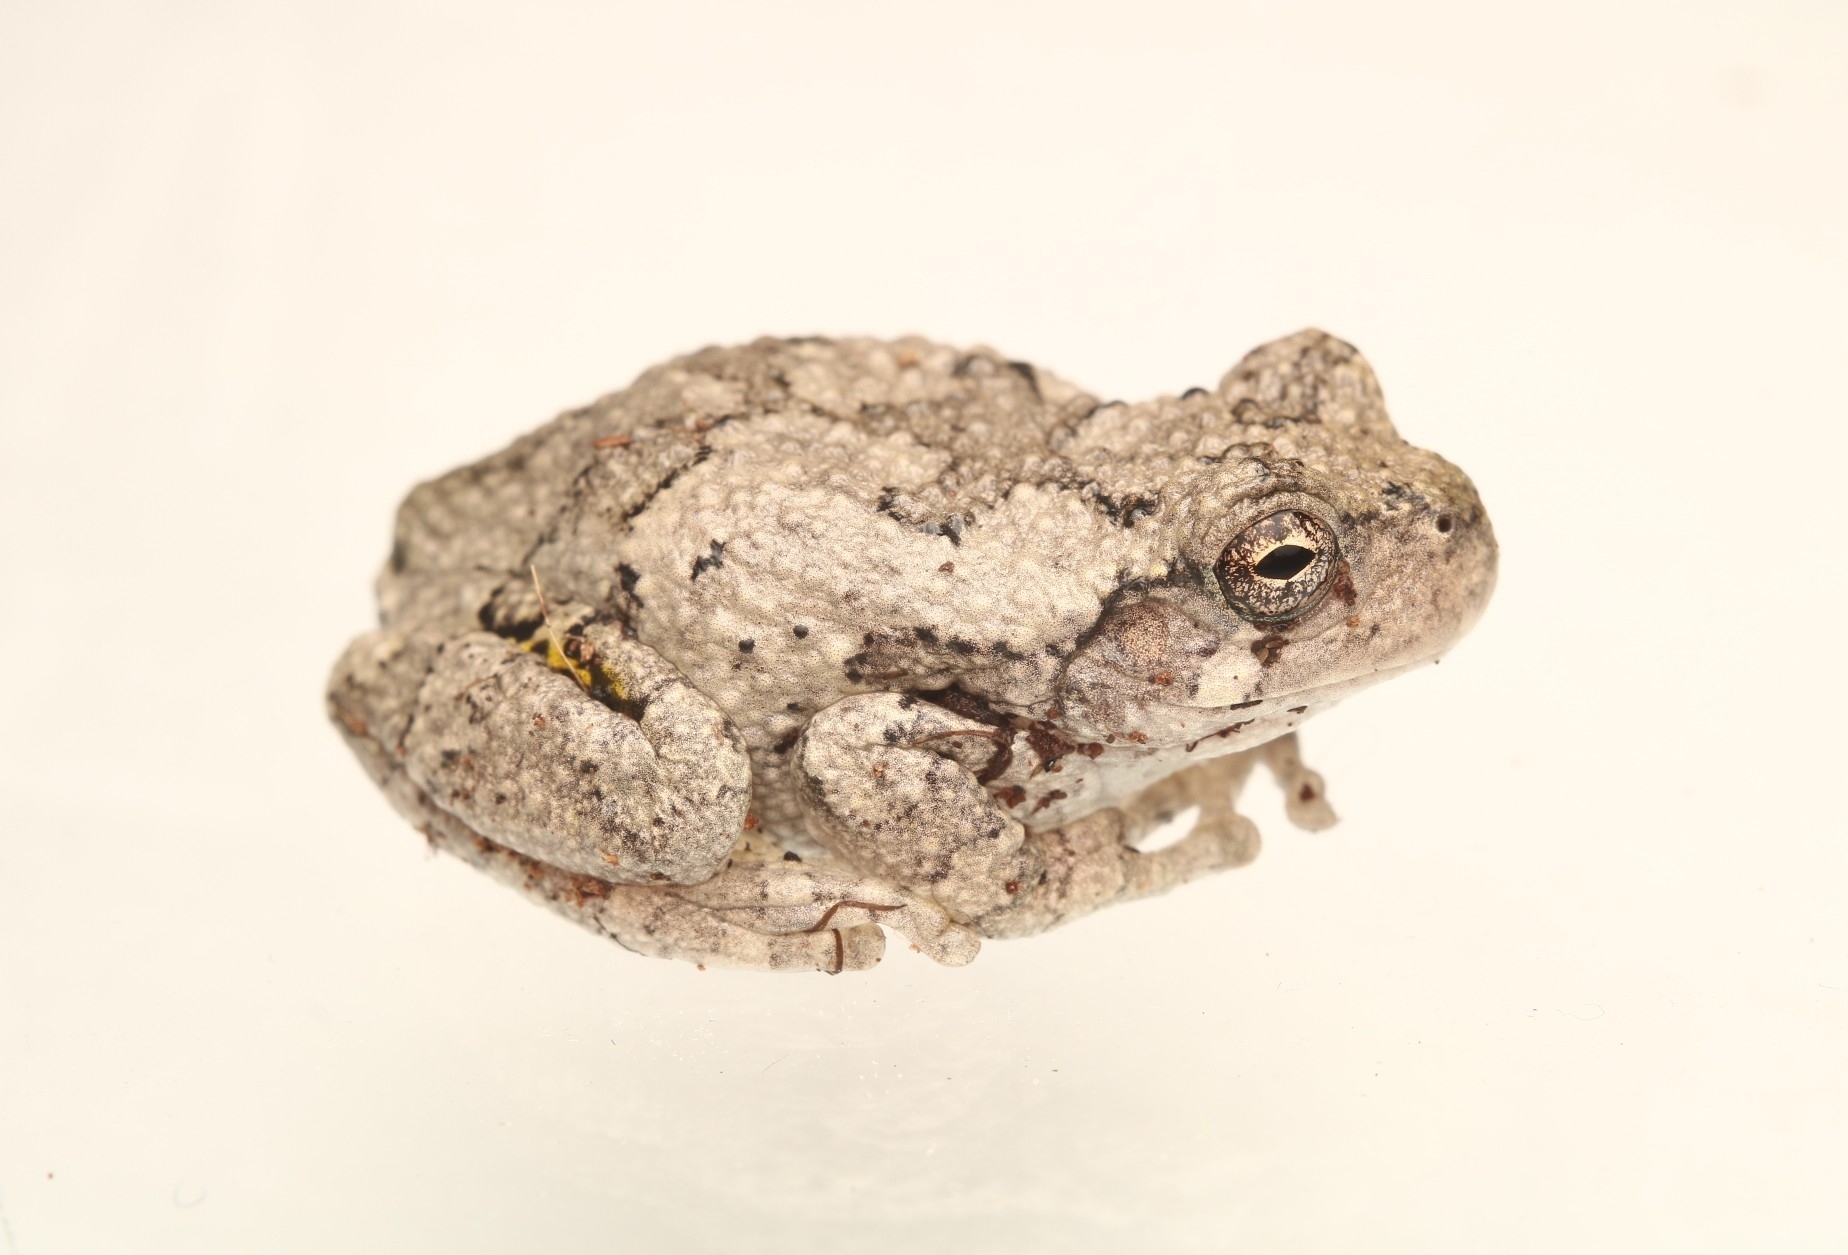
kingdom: Animalia
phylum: Chordata
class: Amphibia
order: Anura
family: Hylidae
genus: Hyla
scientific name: Hyla
